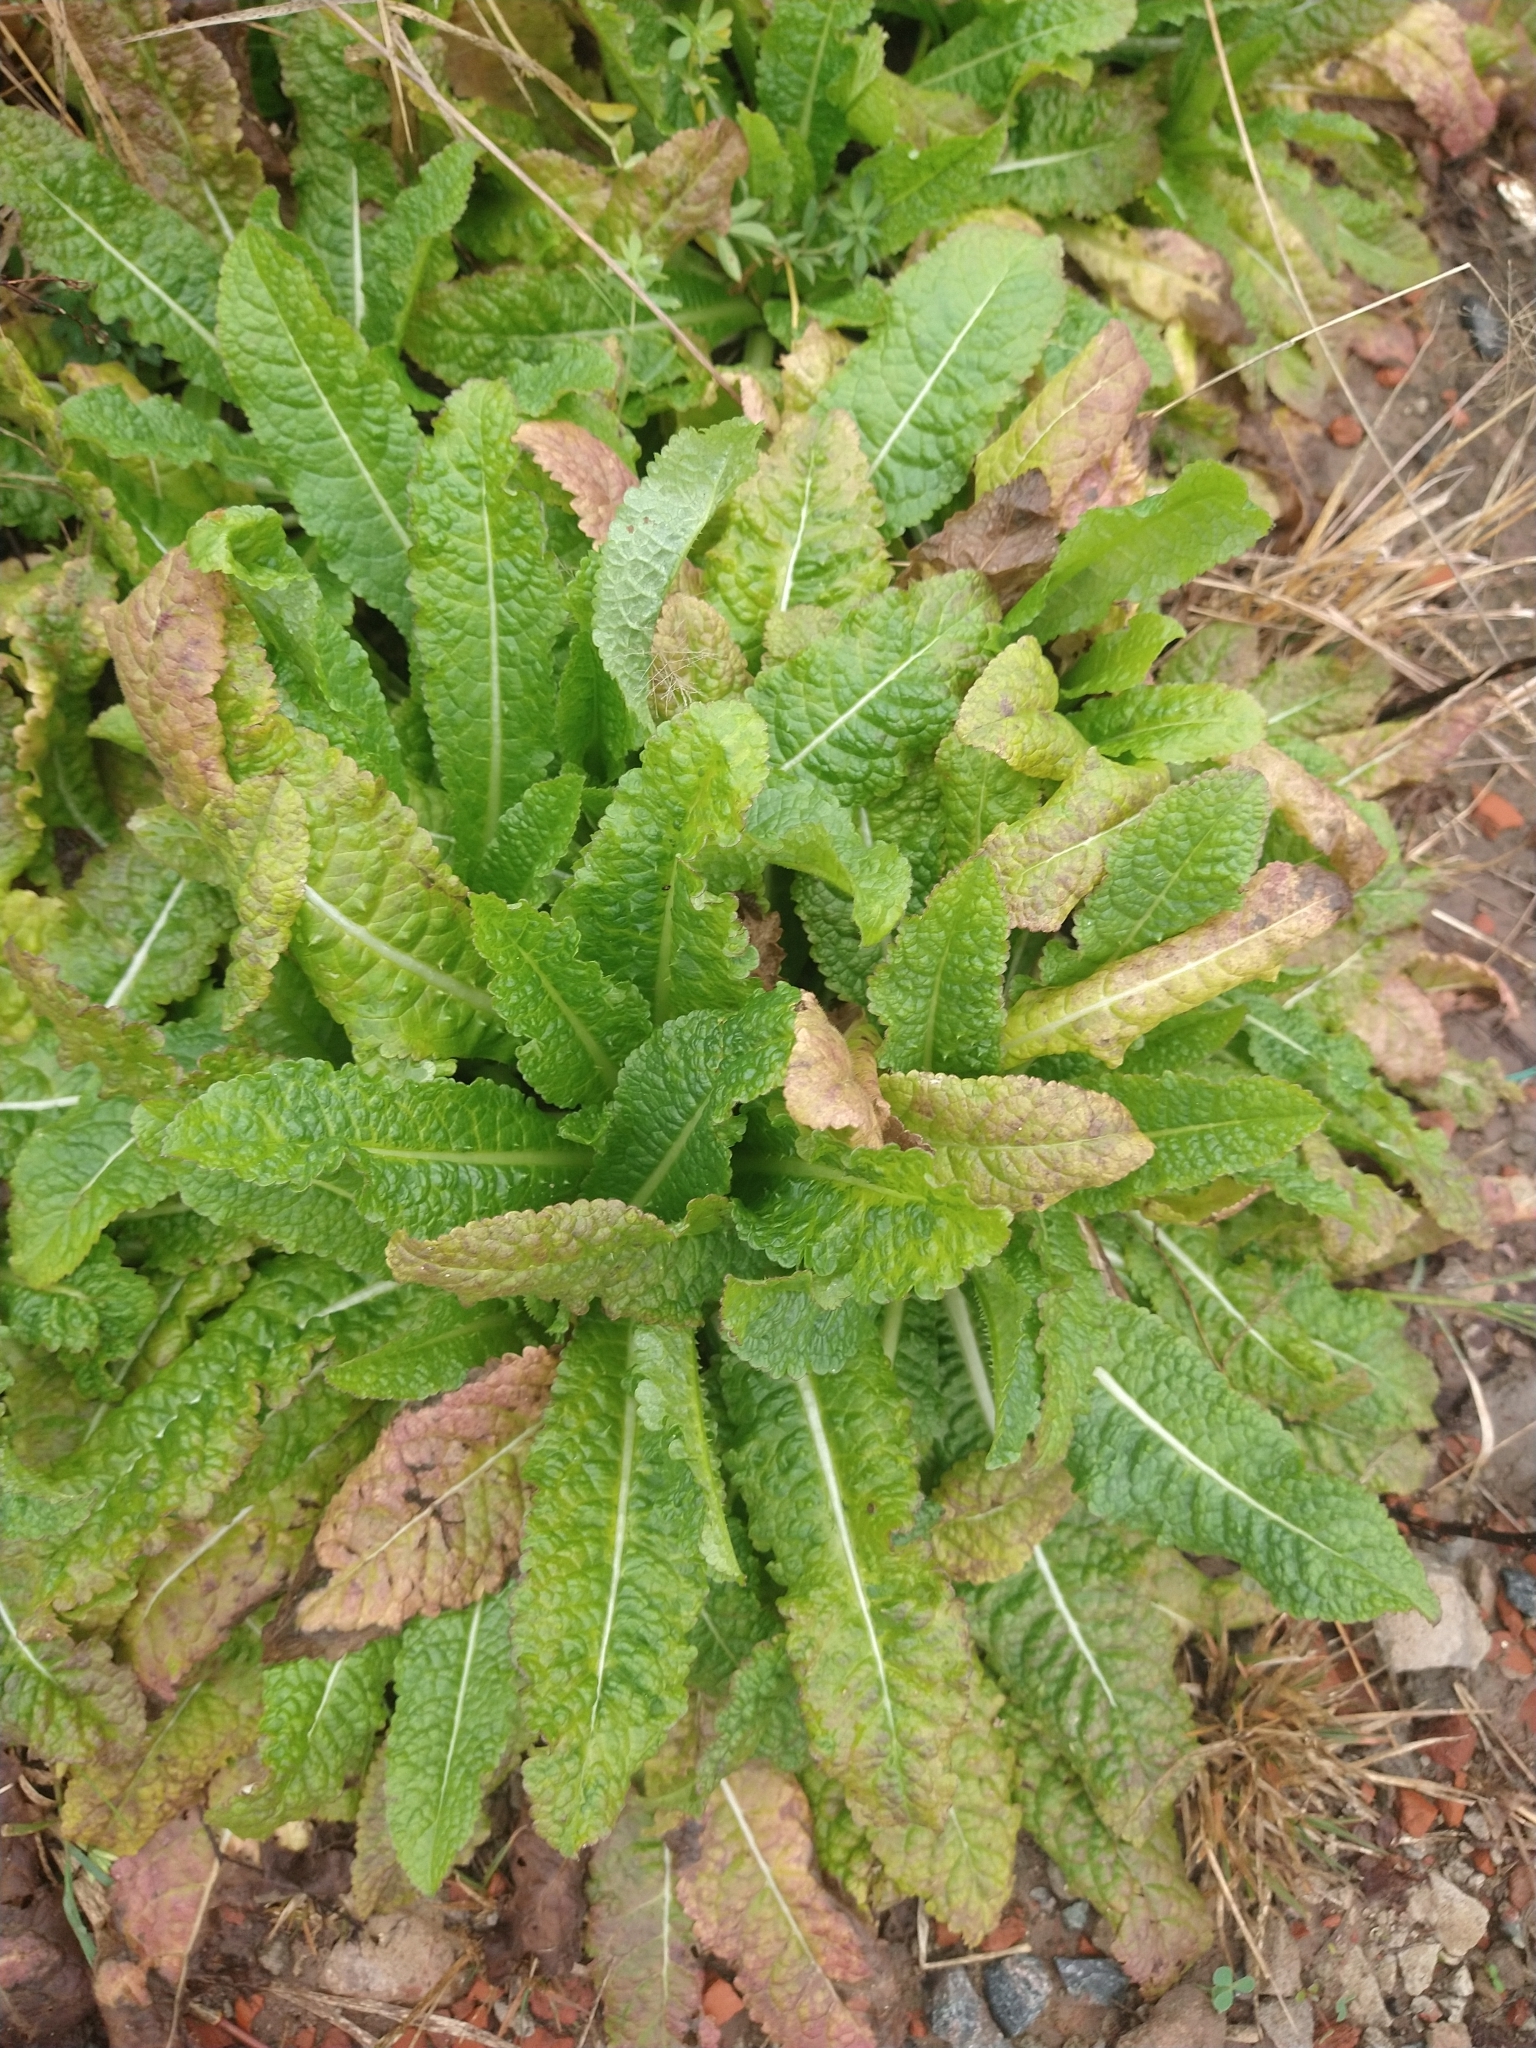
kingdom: Plantae
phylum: Tracheophyta
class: Magnoliopsida
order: Dipsacales
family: Caprifoliaceae
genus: Dipsacus
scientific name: Dipsacus fullonum
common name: Teasel
